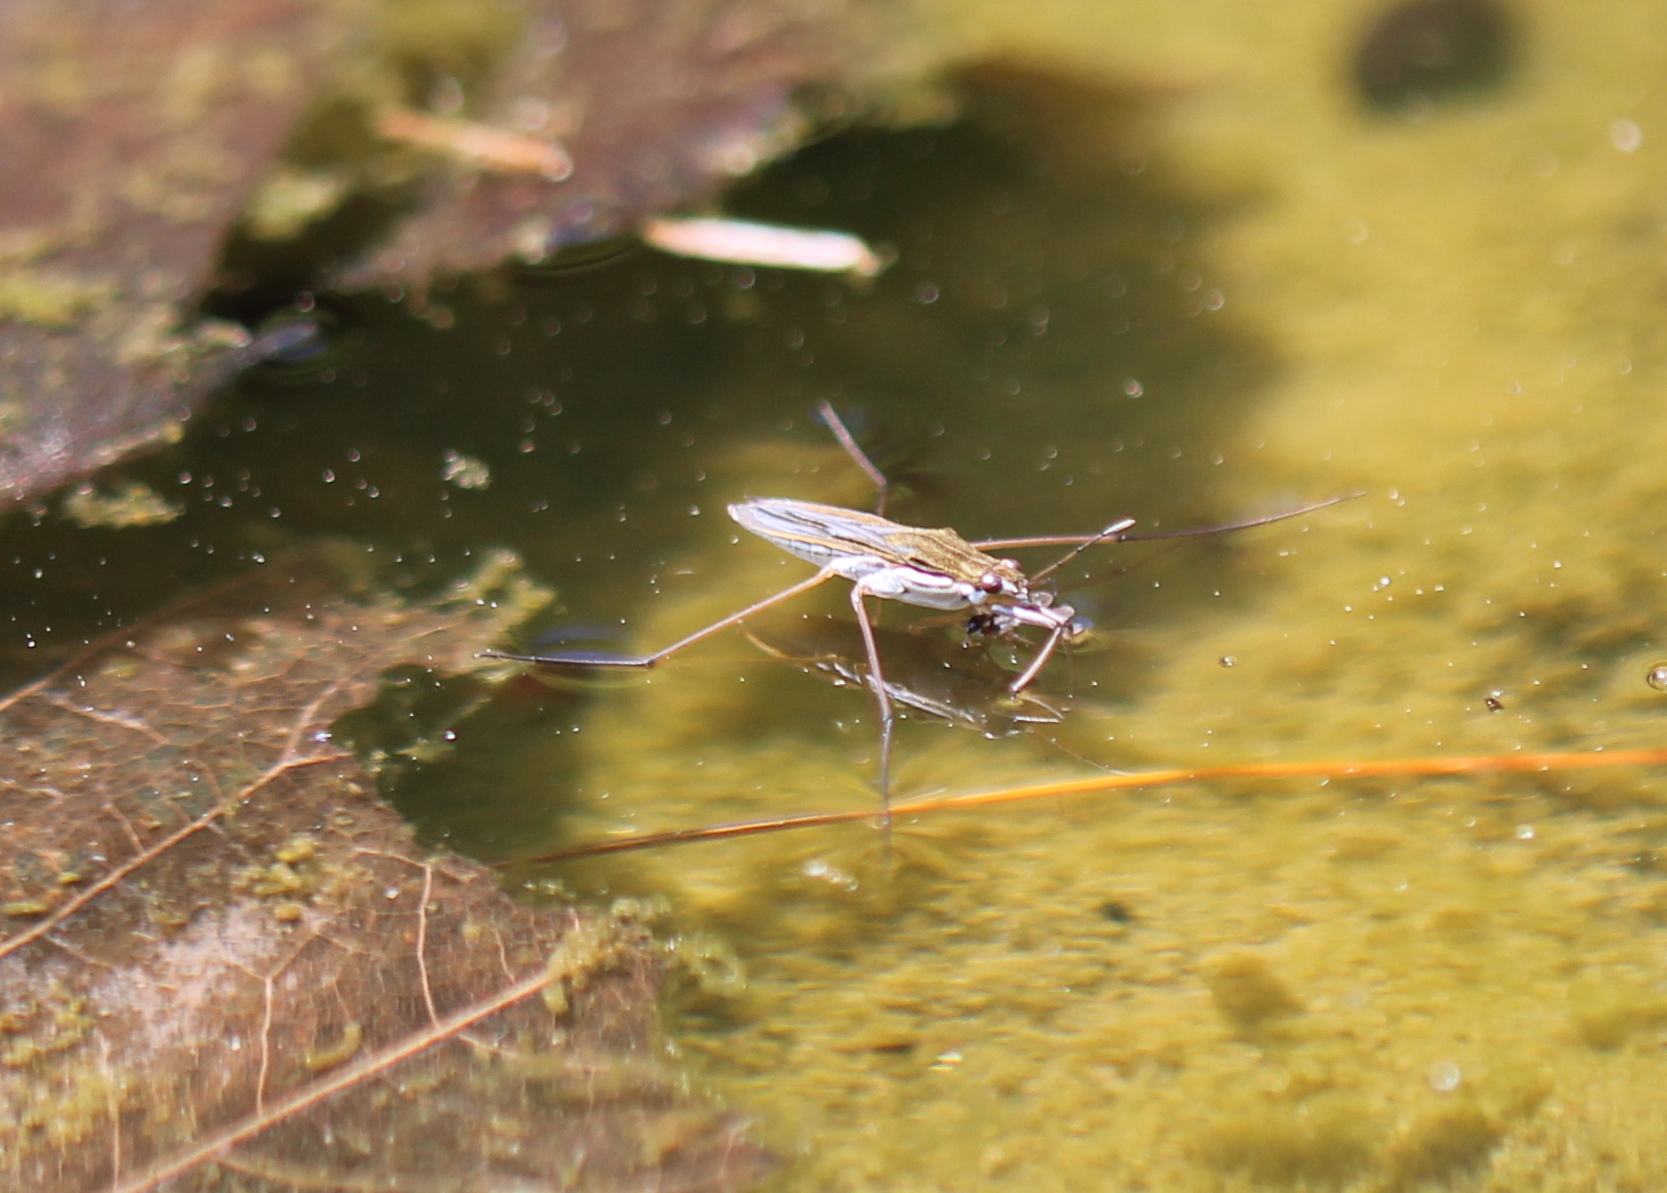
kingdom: Animalia
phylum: Arthropoda
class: Insecta
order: Hemiptera
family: Gerridae
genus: Gerris
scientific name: Gerris
